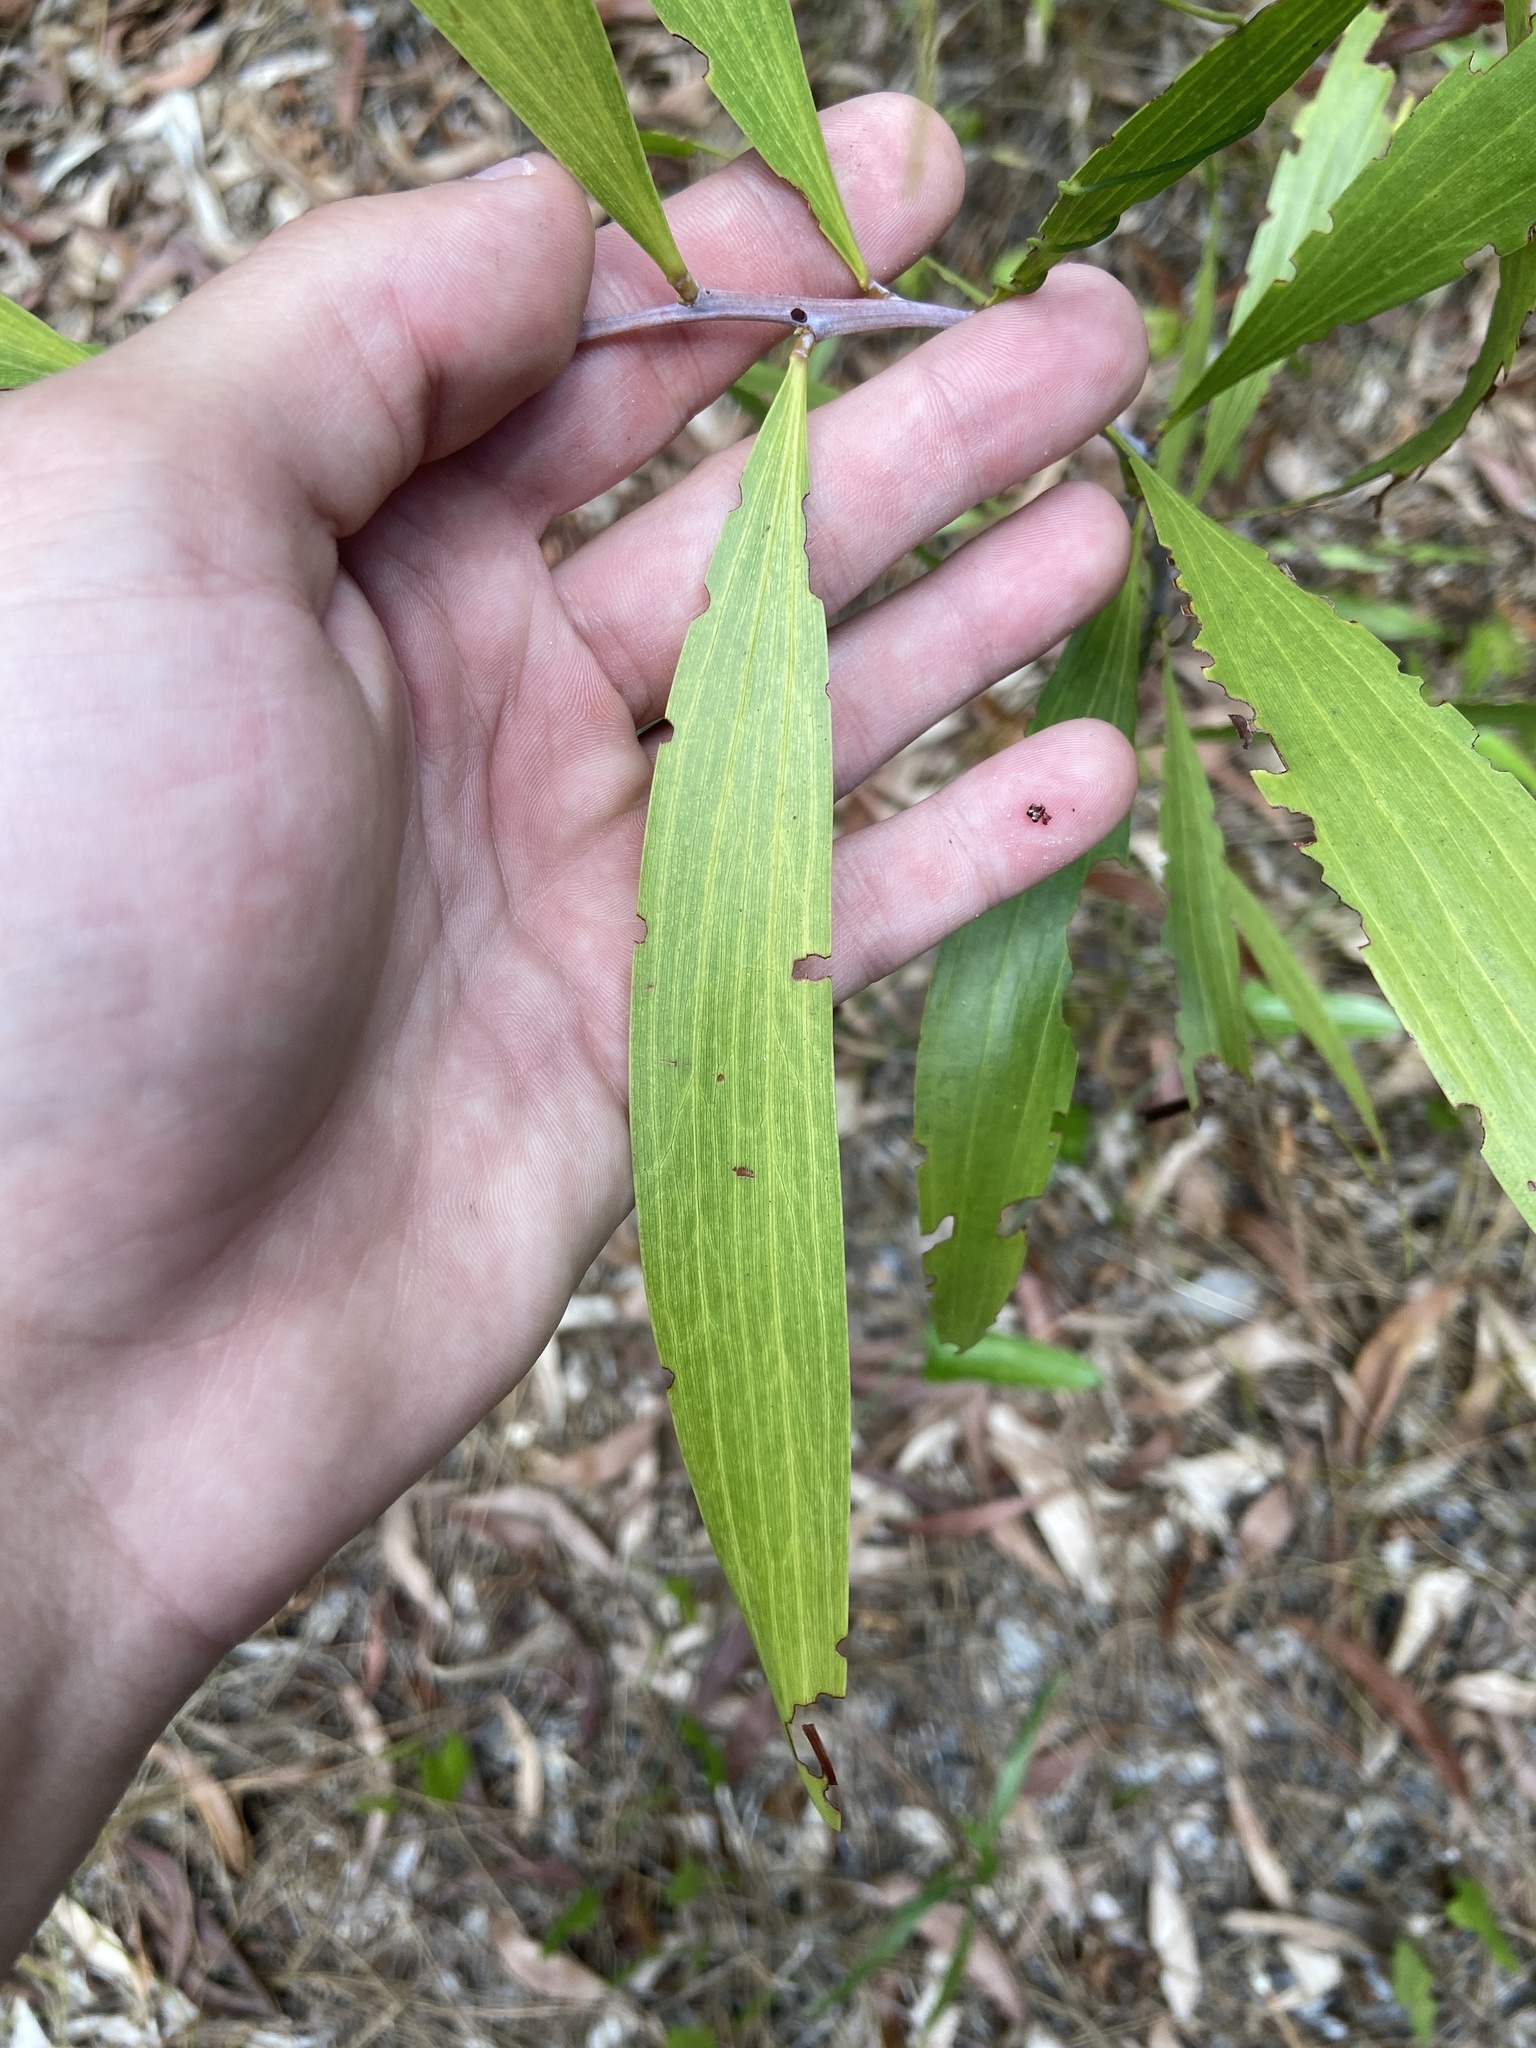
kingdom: Plantae
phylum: Tracheophyta
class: Magnoliopsida
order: Fabales
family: Fabaceae
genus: Acacia
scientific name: Acacia auriculiformis
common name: Earleaf acacia
